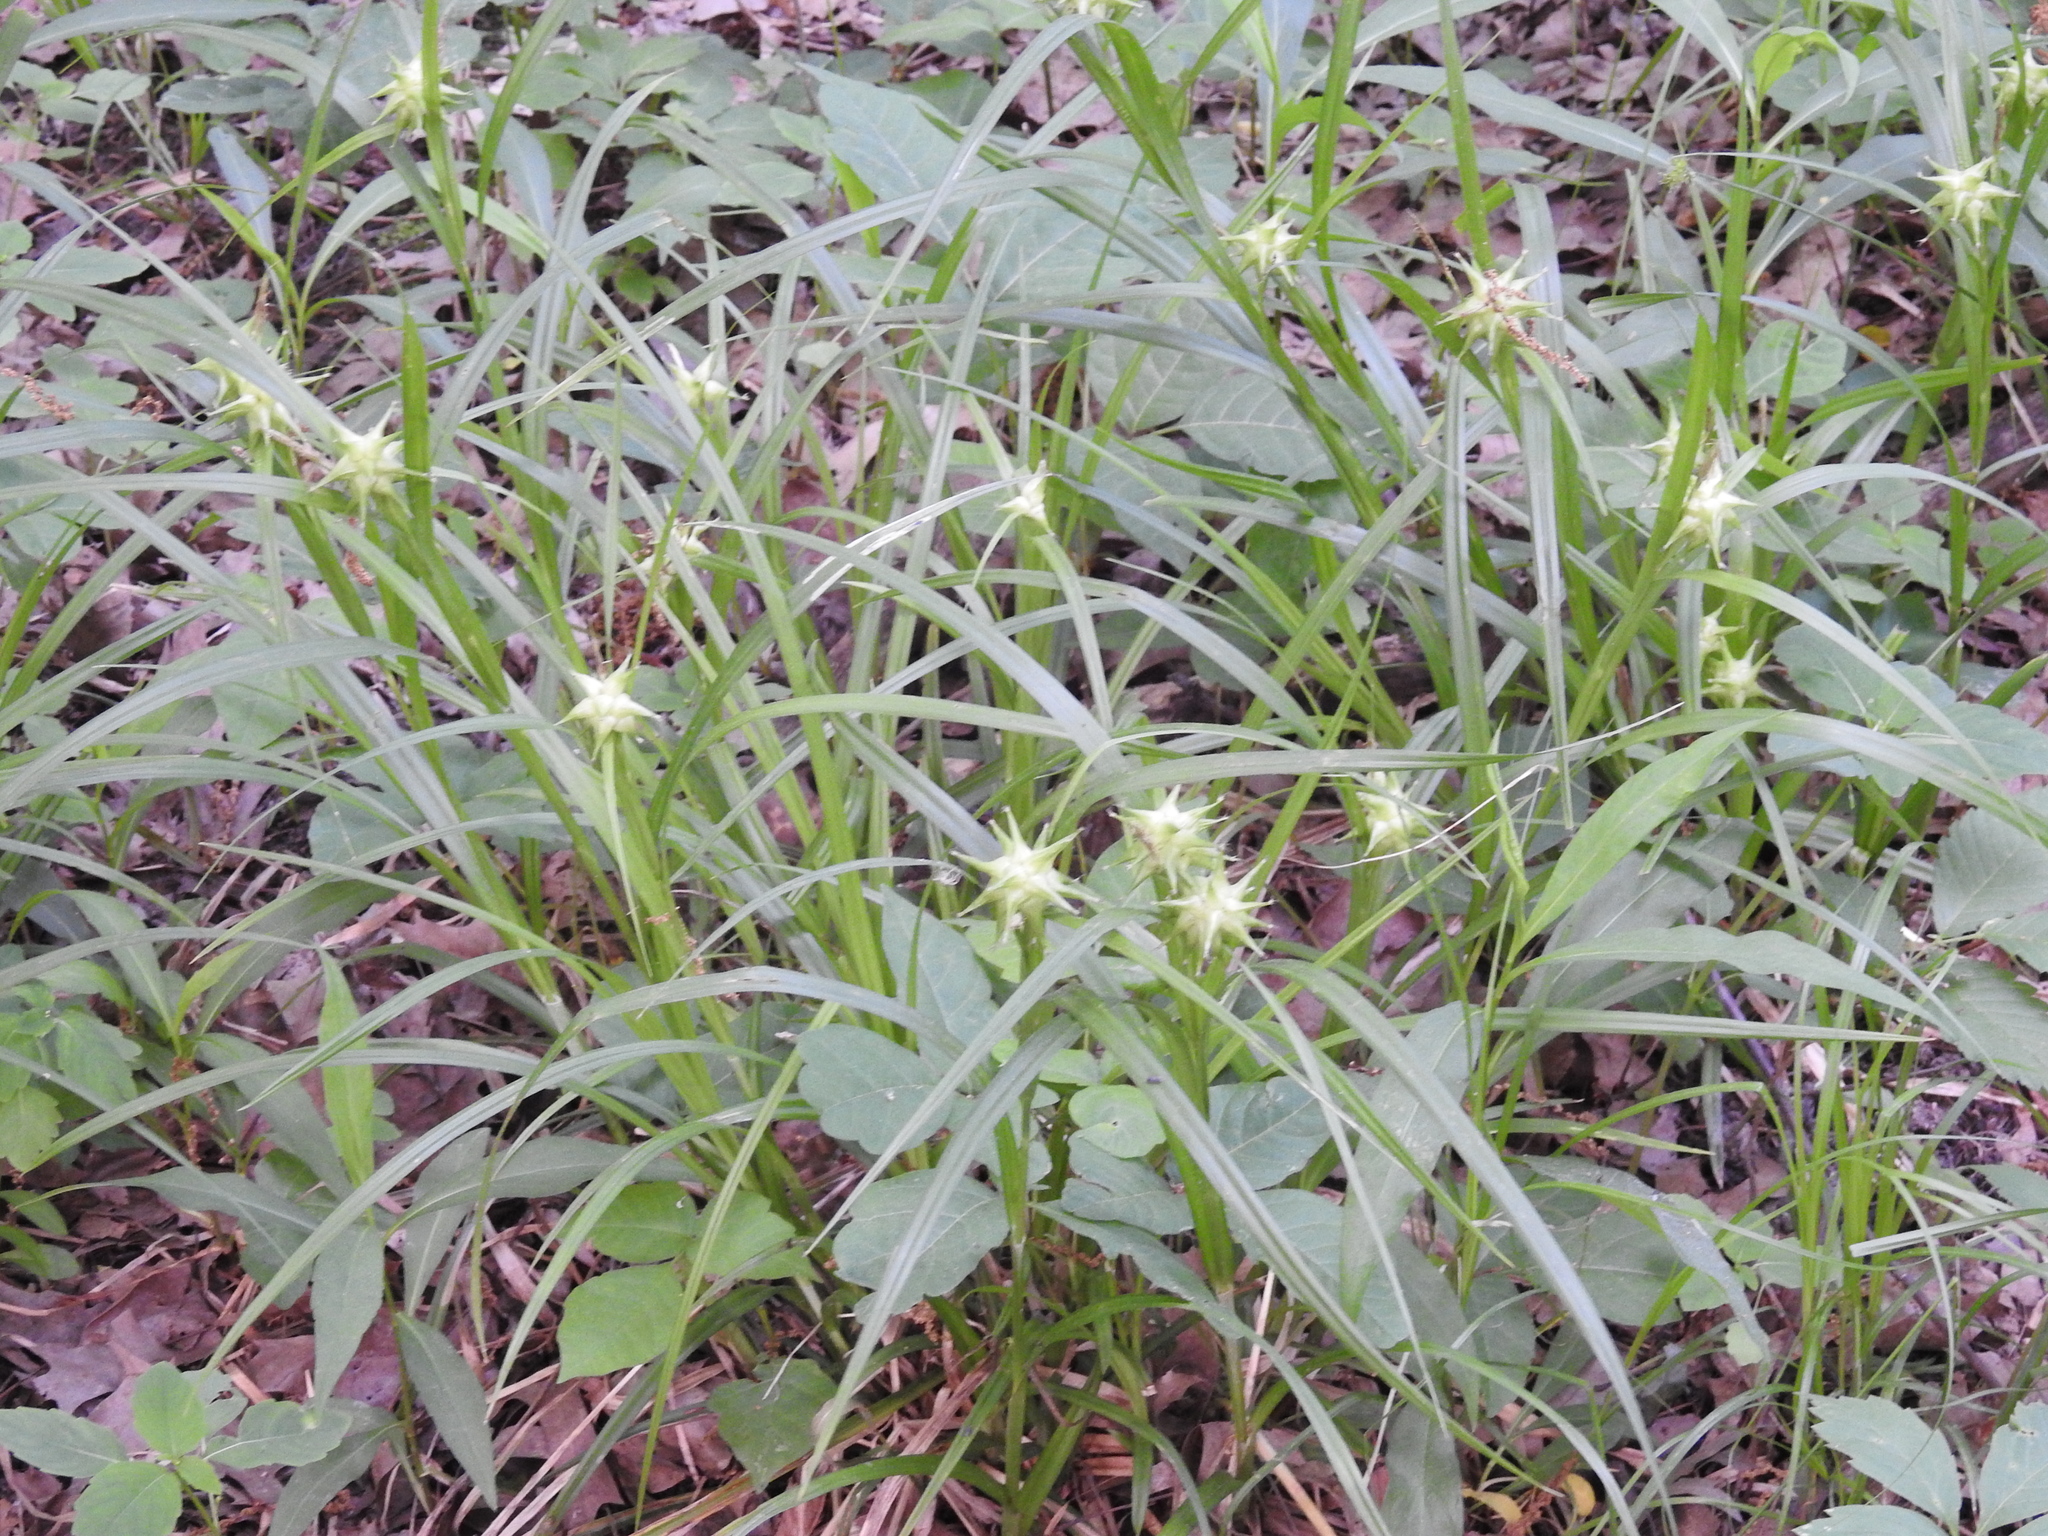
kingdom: Plantae
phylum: Tracheophyta
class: Liliopsida
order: Poales
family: Cyperaceae
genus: Carex
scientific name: Carex grayi
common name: Asa gray's sedge
